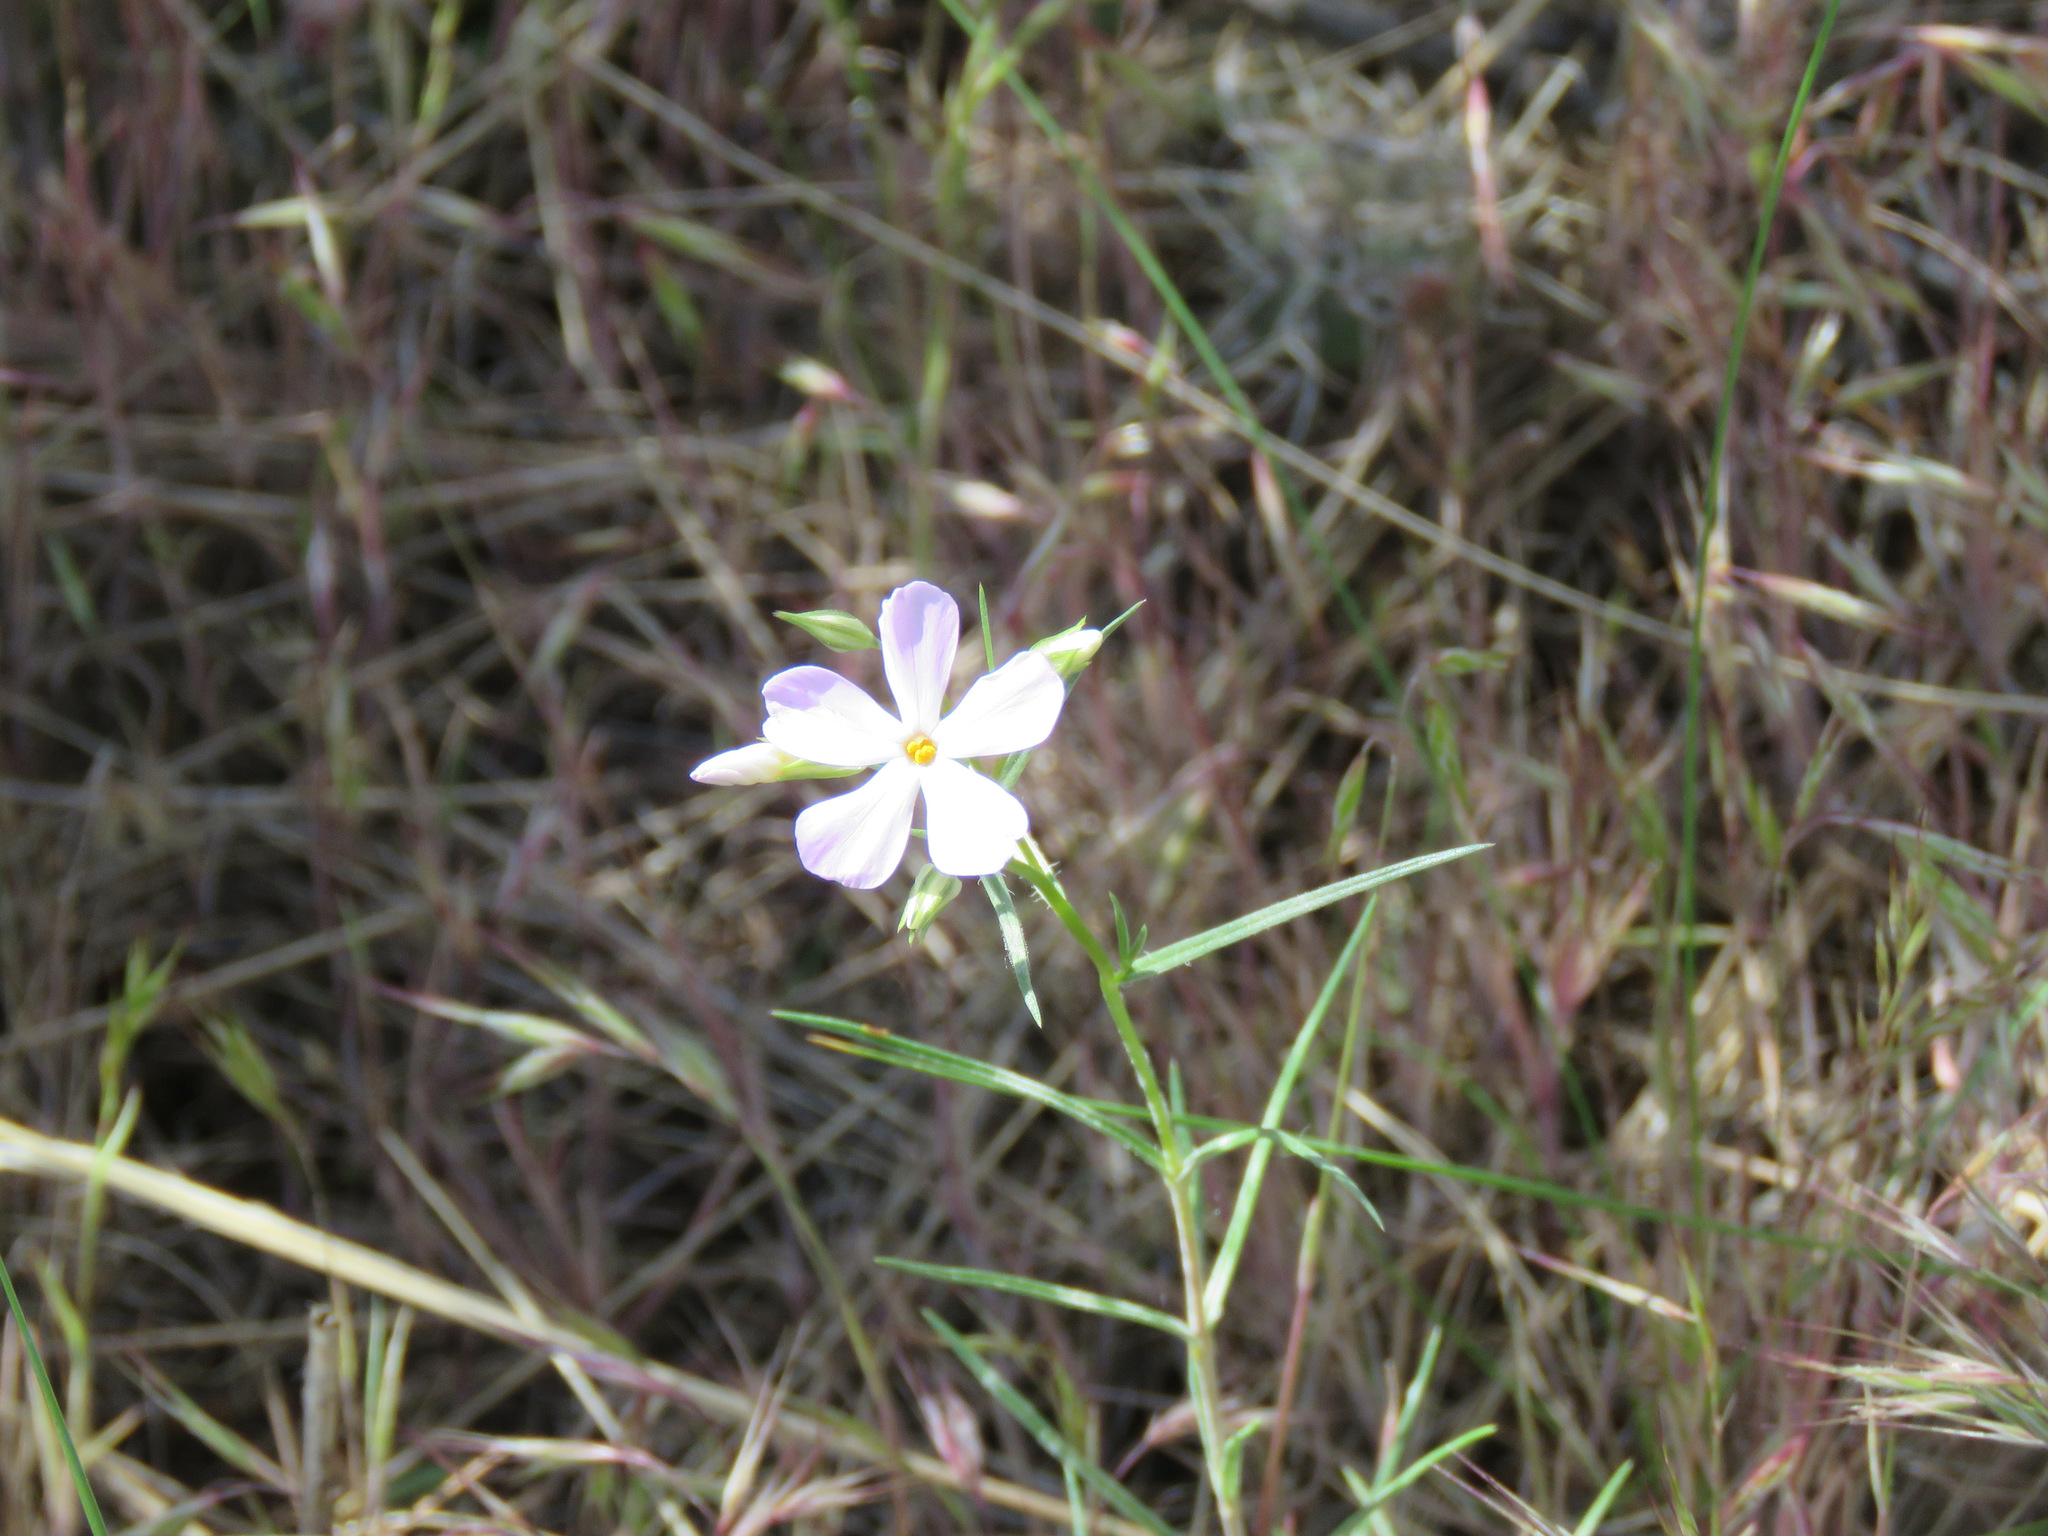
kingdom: Plantae
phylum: Tracheophyta
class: Magnoliopsida
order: Ericales
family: Polemoniaceae
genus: Phlox
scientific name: Phlox longifolia
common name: Longleaf phlox
